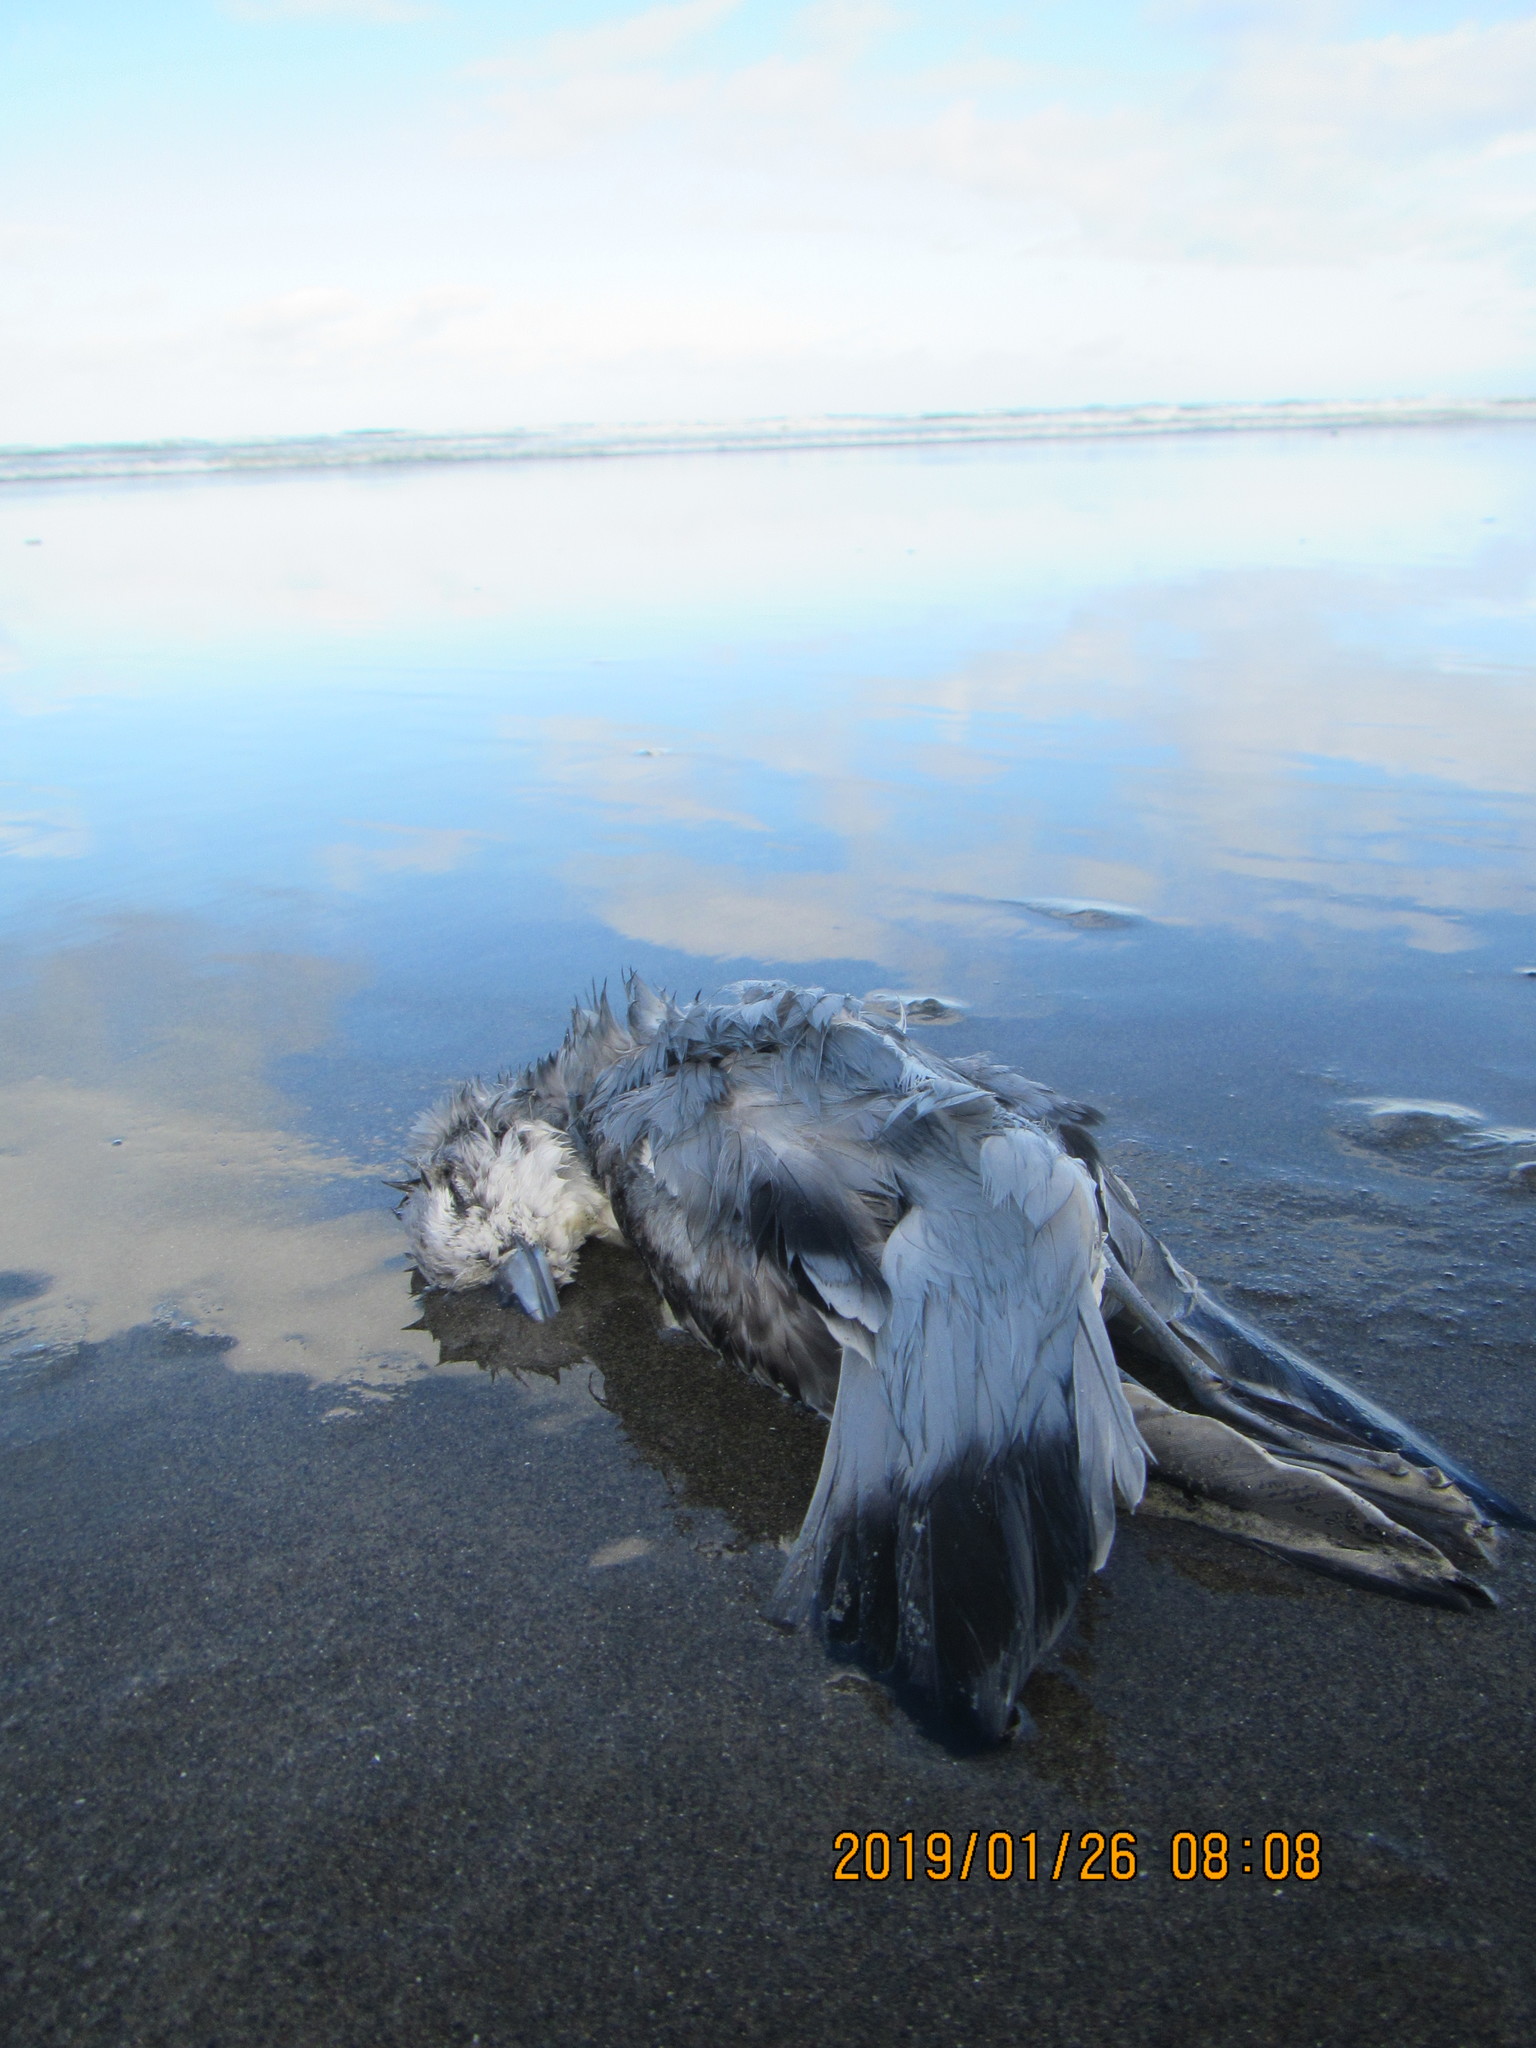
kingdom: Animalia
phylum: Chordata
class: Aves
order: Procellariiformes
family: Procellariidae
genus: Pachyptila
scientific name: Pachyptila turtur
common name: Fairy prion
